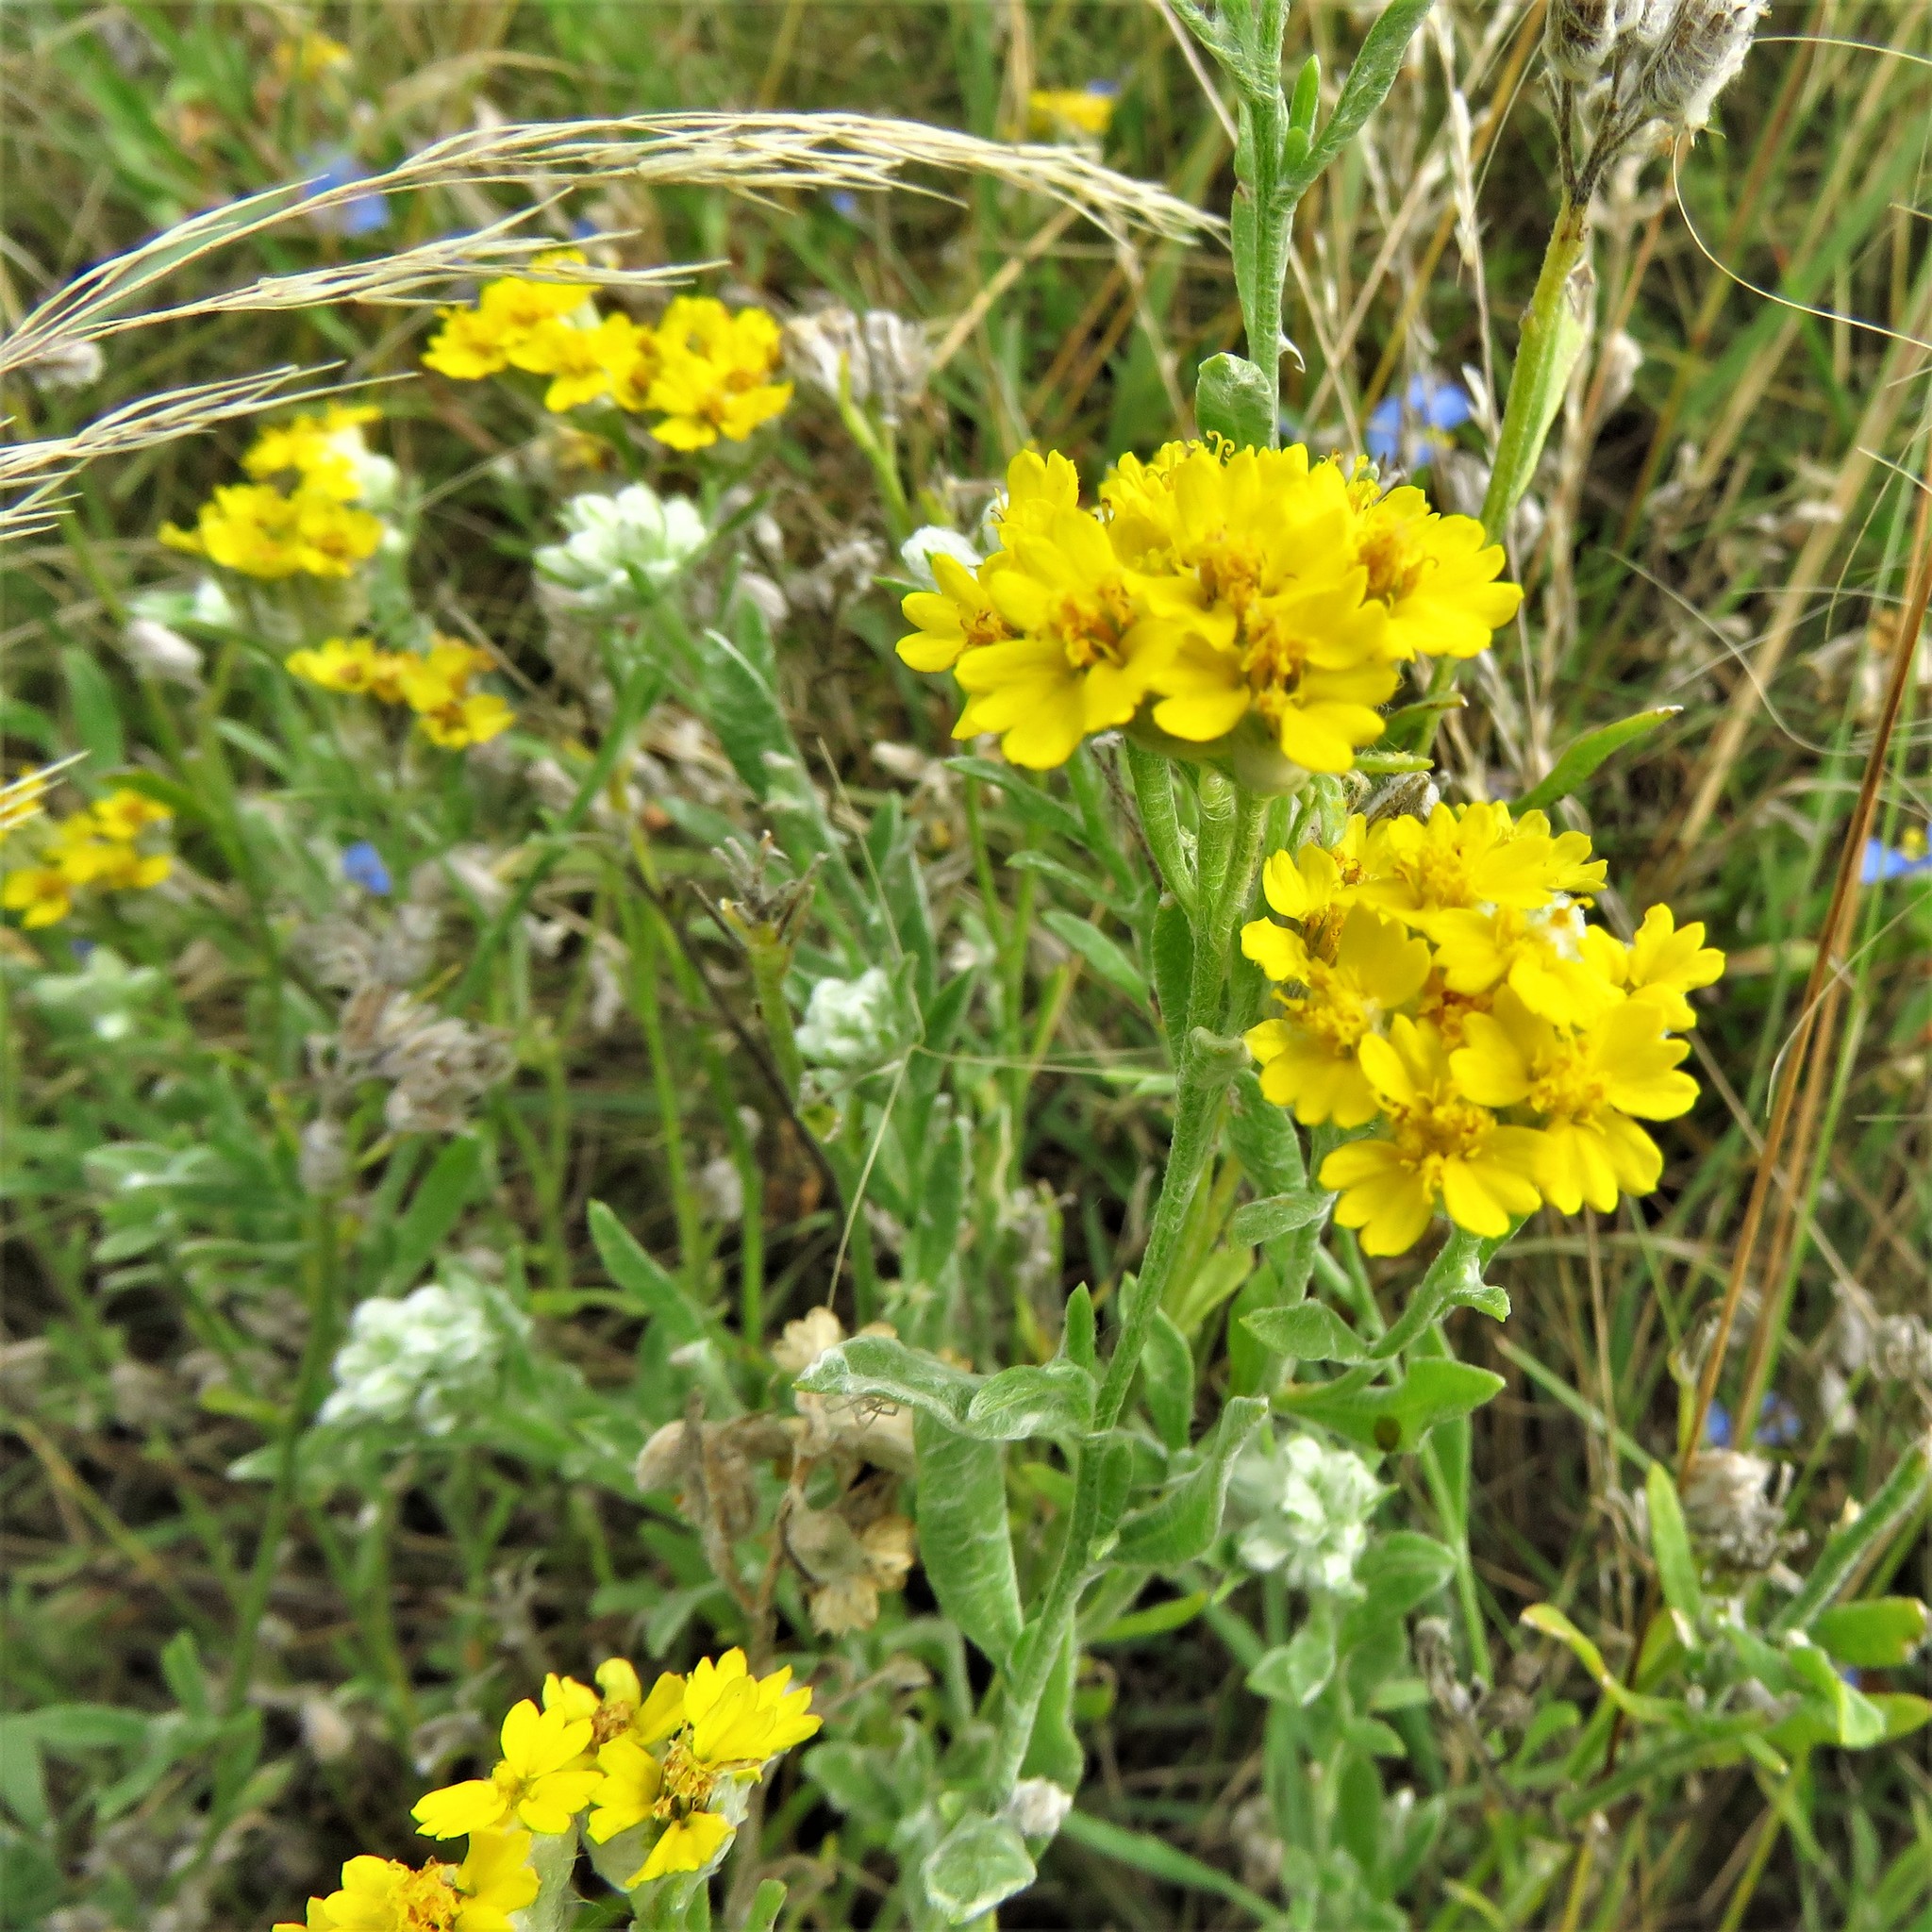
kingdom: Plantae
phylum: Tracheophyta
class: Magnoliopsida
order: Asterales
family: Asteraceae
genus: Psilostrophe
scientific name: Psilostrophe tagetina
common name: Marigold paper-flower
